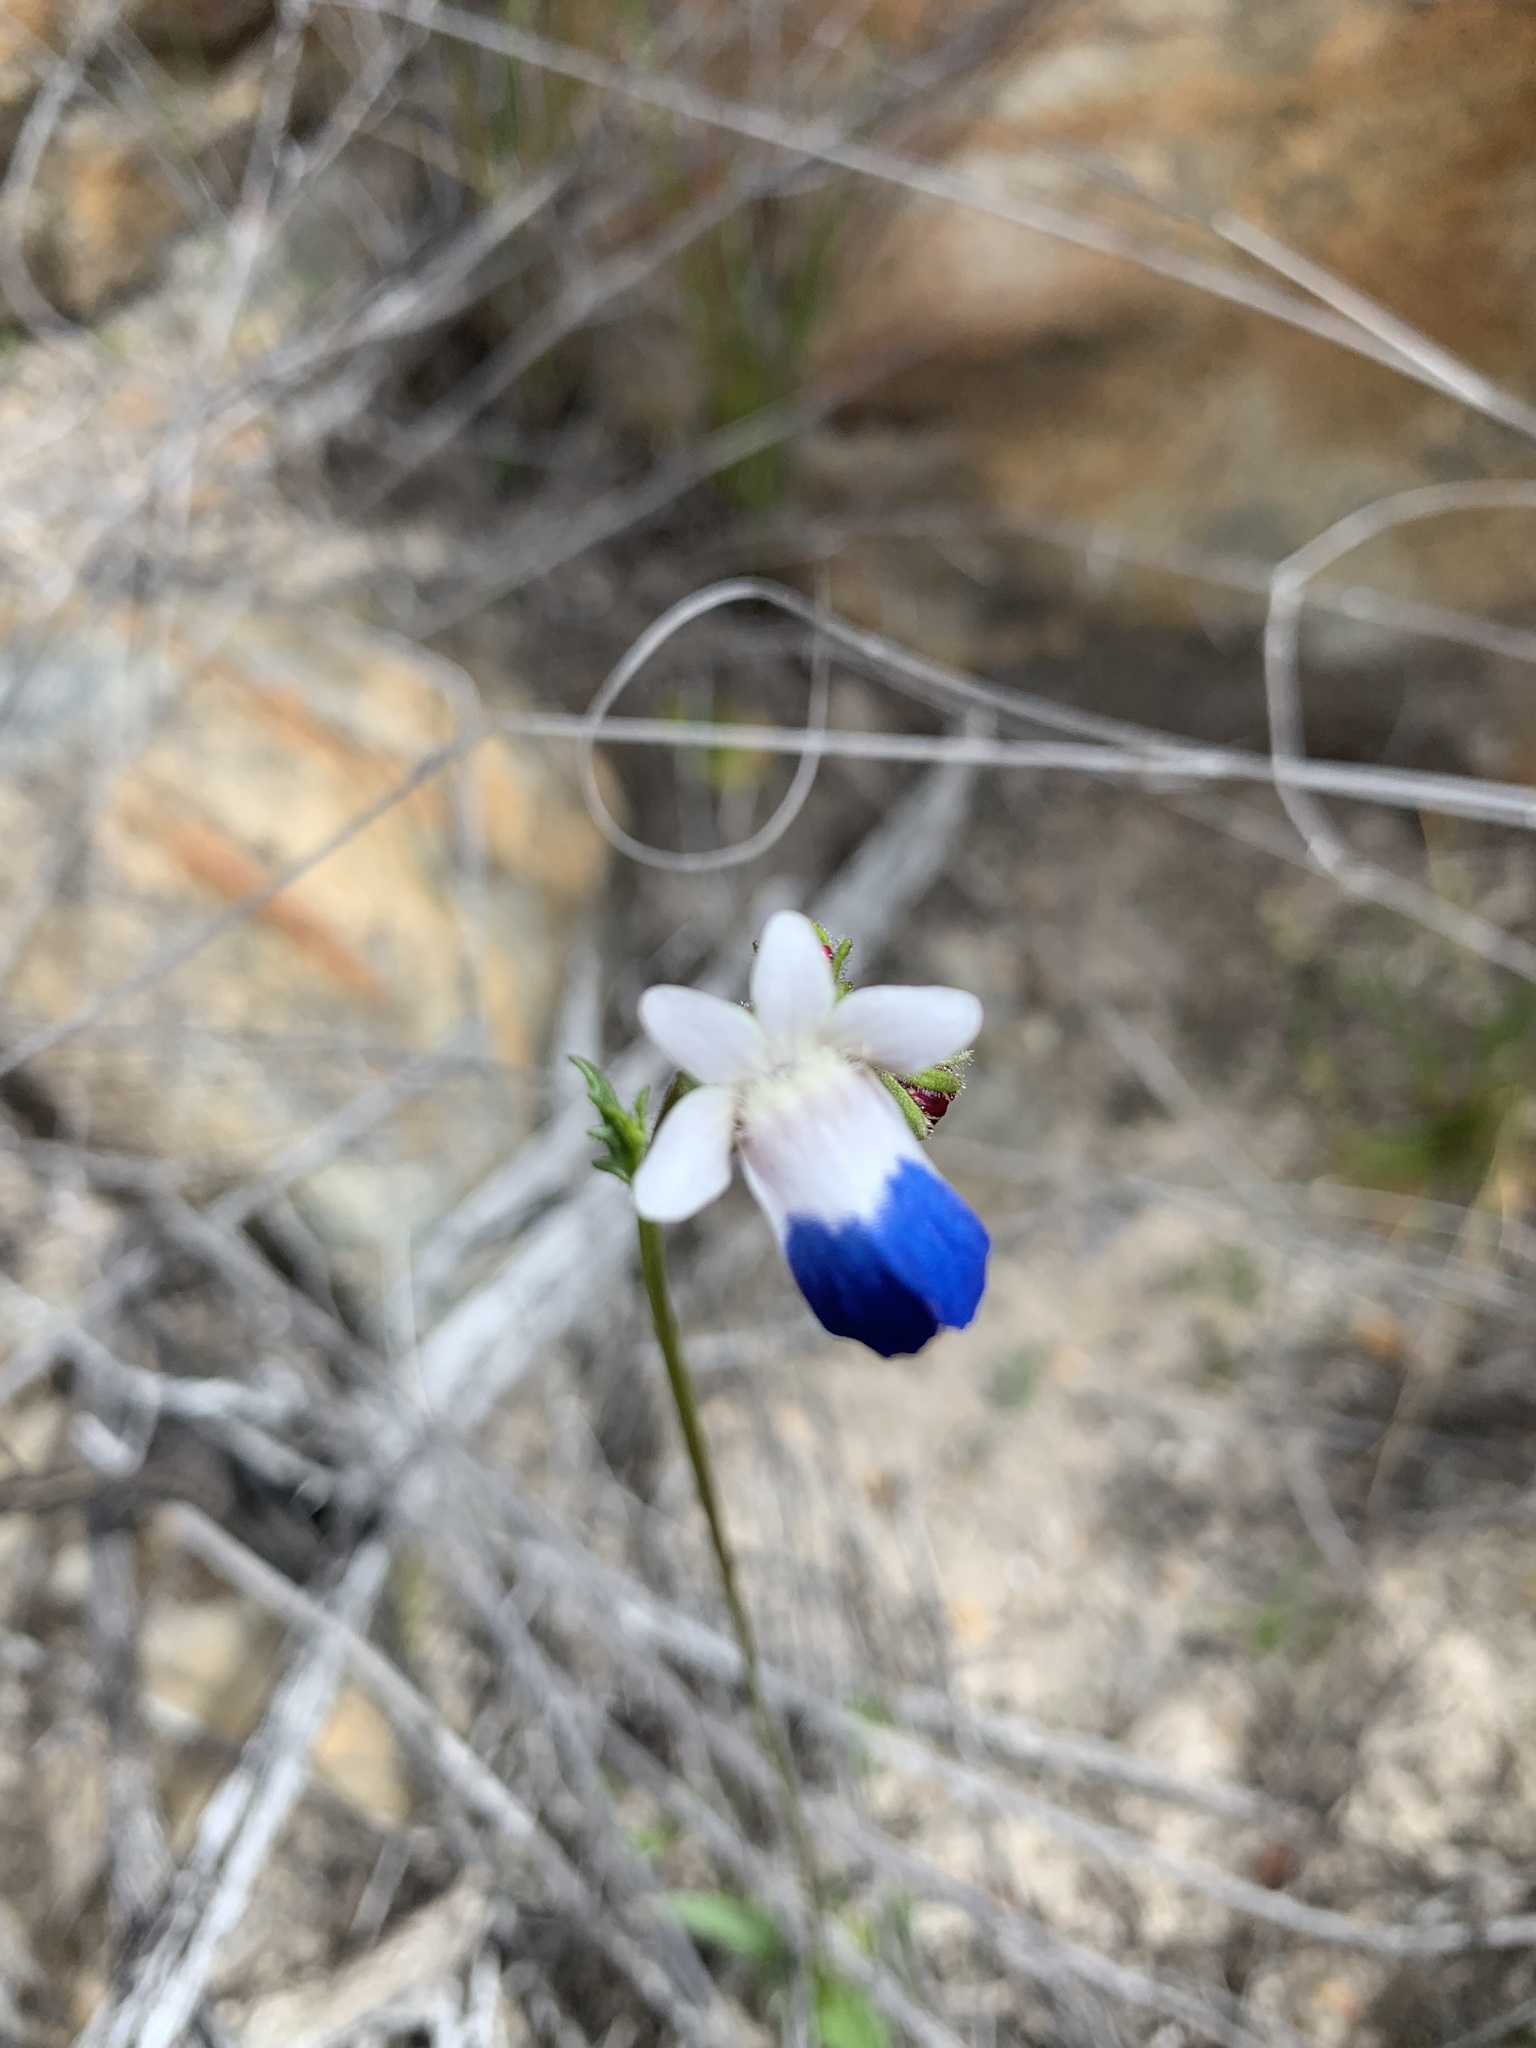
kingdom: Plantae
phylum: Tracheophyta
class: Magnoliopsida
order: Lamiales
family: Scrophulariaceae
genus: Nemesia
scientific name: Nemesia barbata
